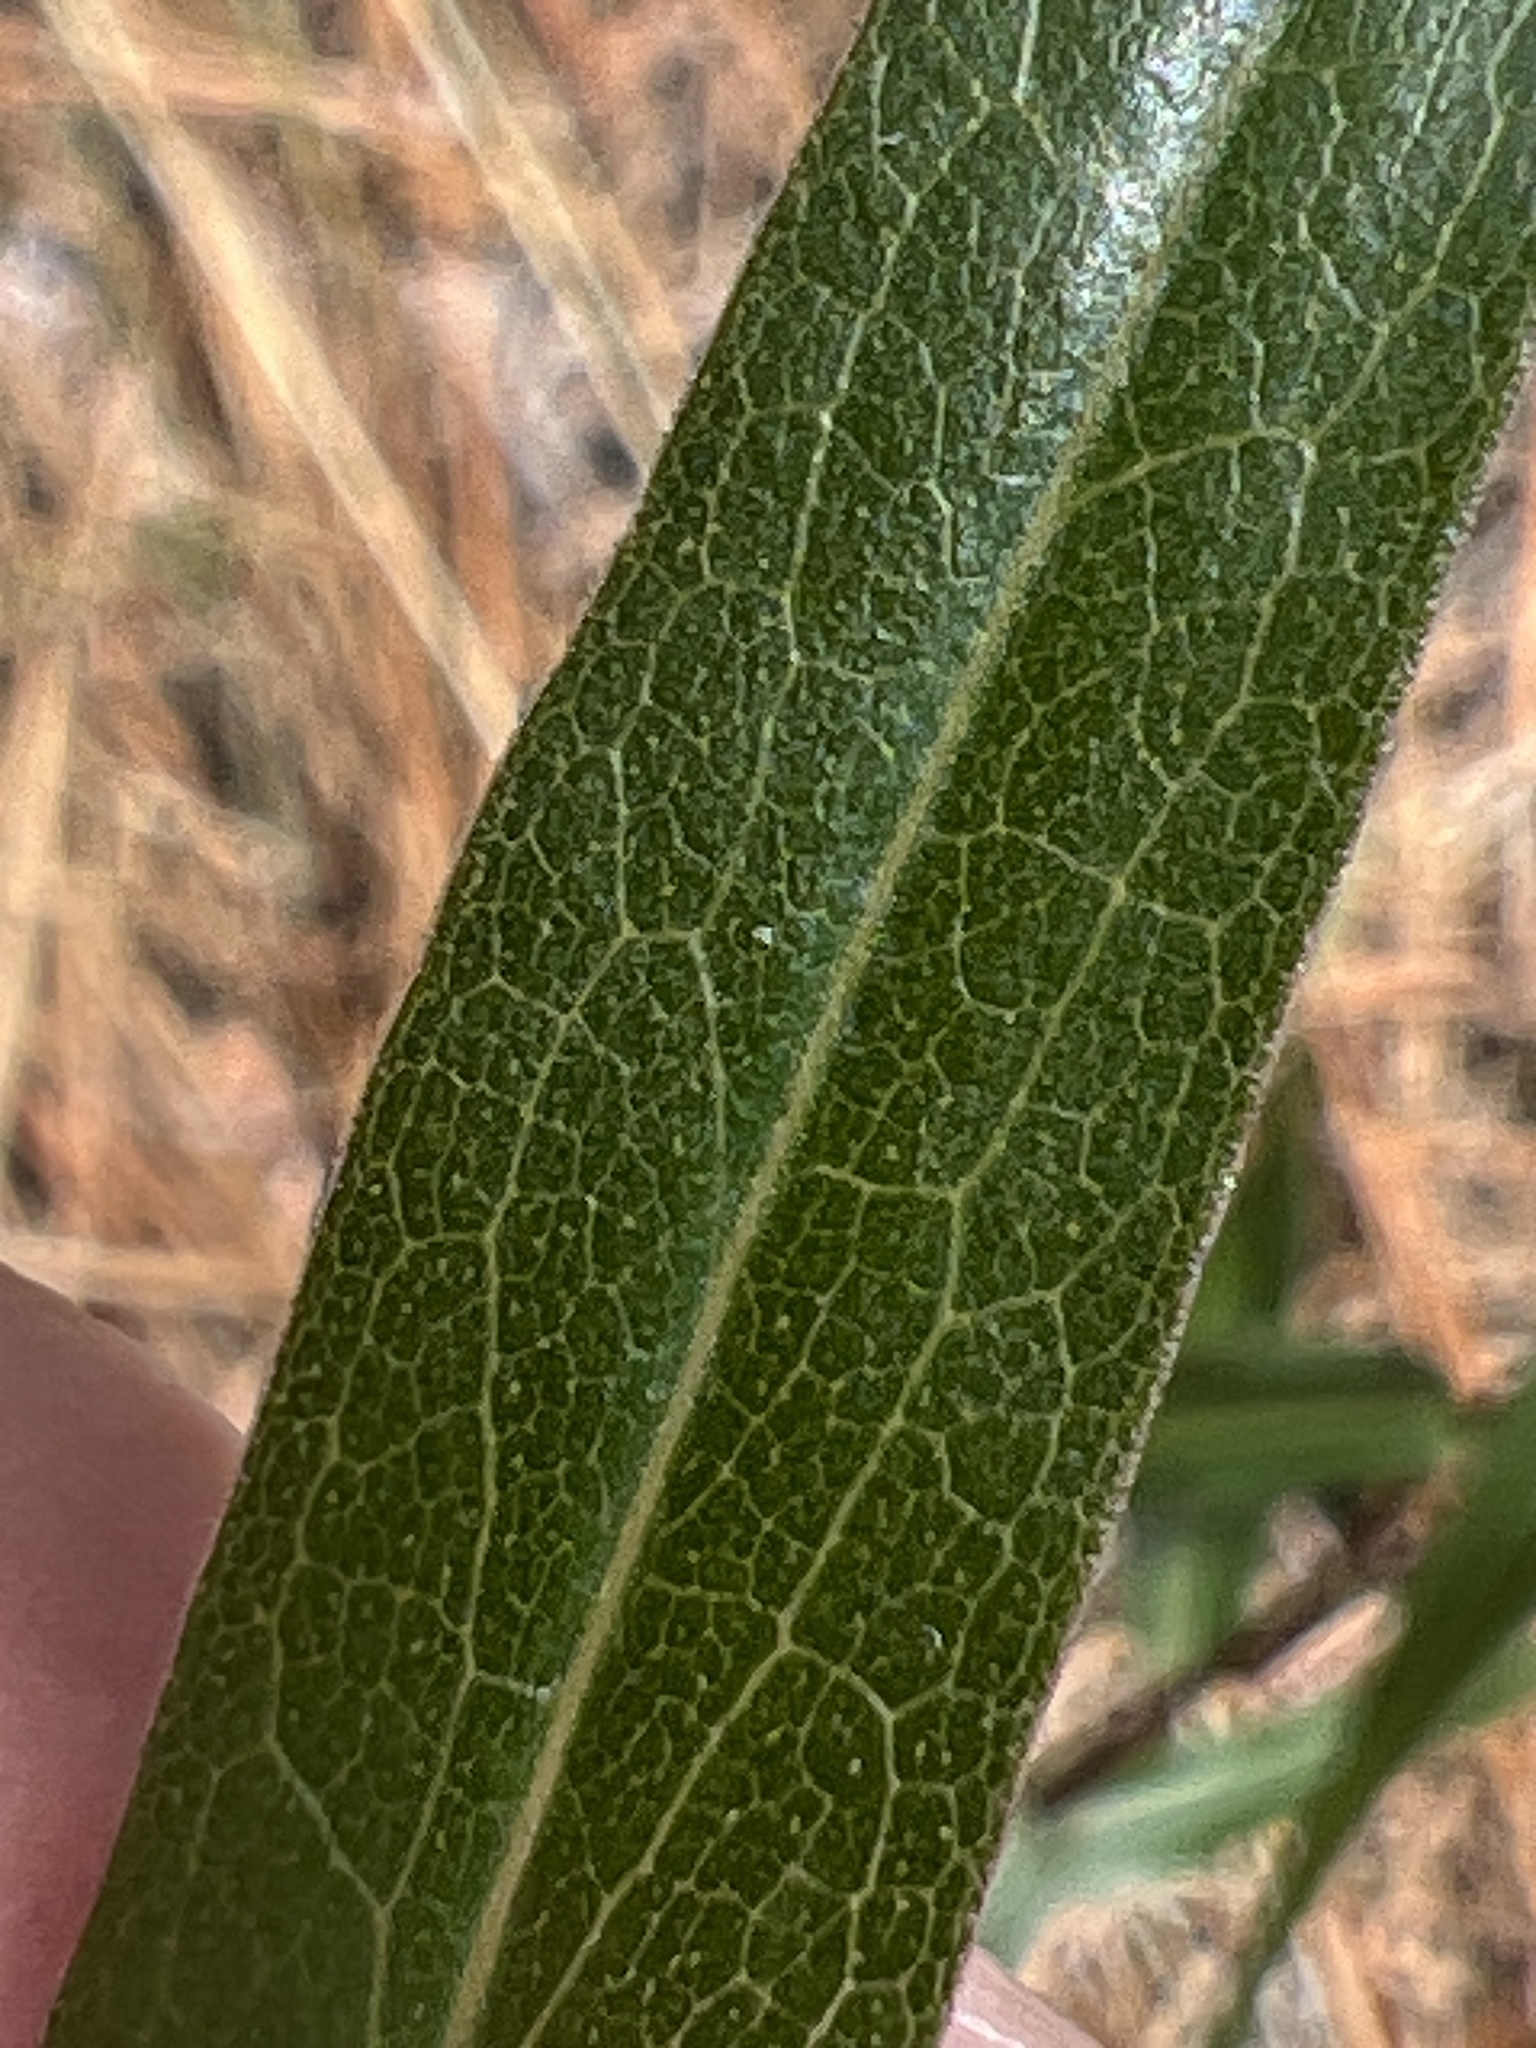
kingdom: Plantae
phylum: Tracheophyta
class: Magnoliopsida
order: Asterales
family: Asteraceae
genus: Solidago
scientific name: Solidago odora
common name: Anise-scented goldenrod
